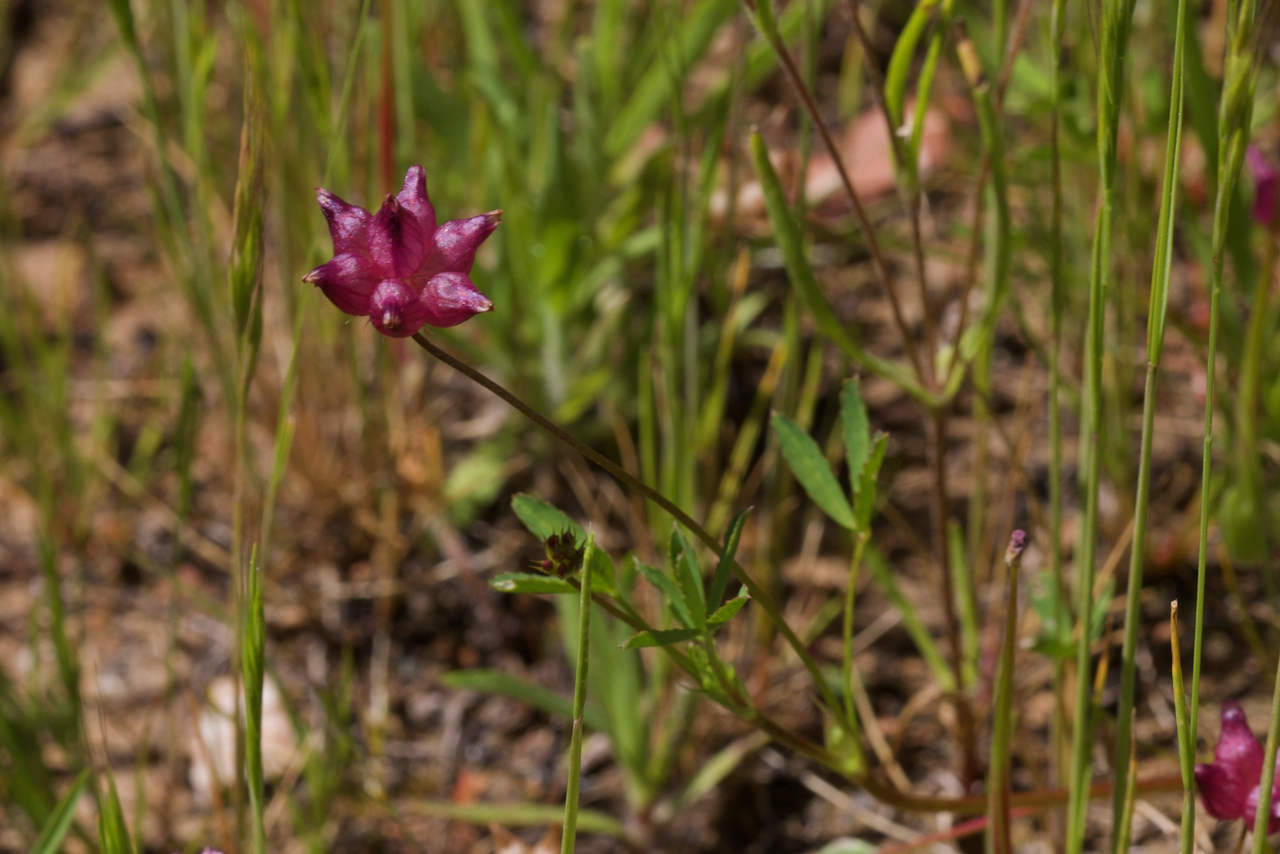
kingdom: Plantae
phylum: Tracheophyta
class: Magnoliopsida
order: Fabales
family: Fabaceae
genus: Trifolium
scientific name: Trifolium depauperatum
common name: Poverty clover
